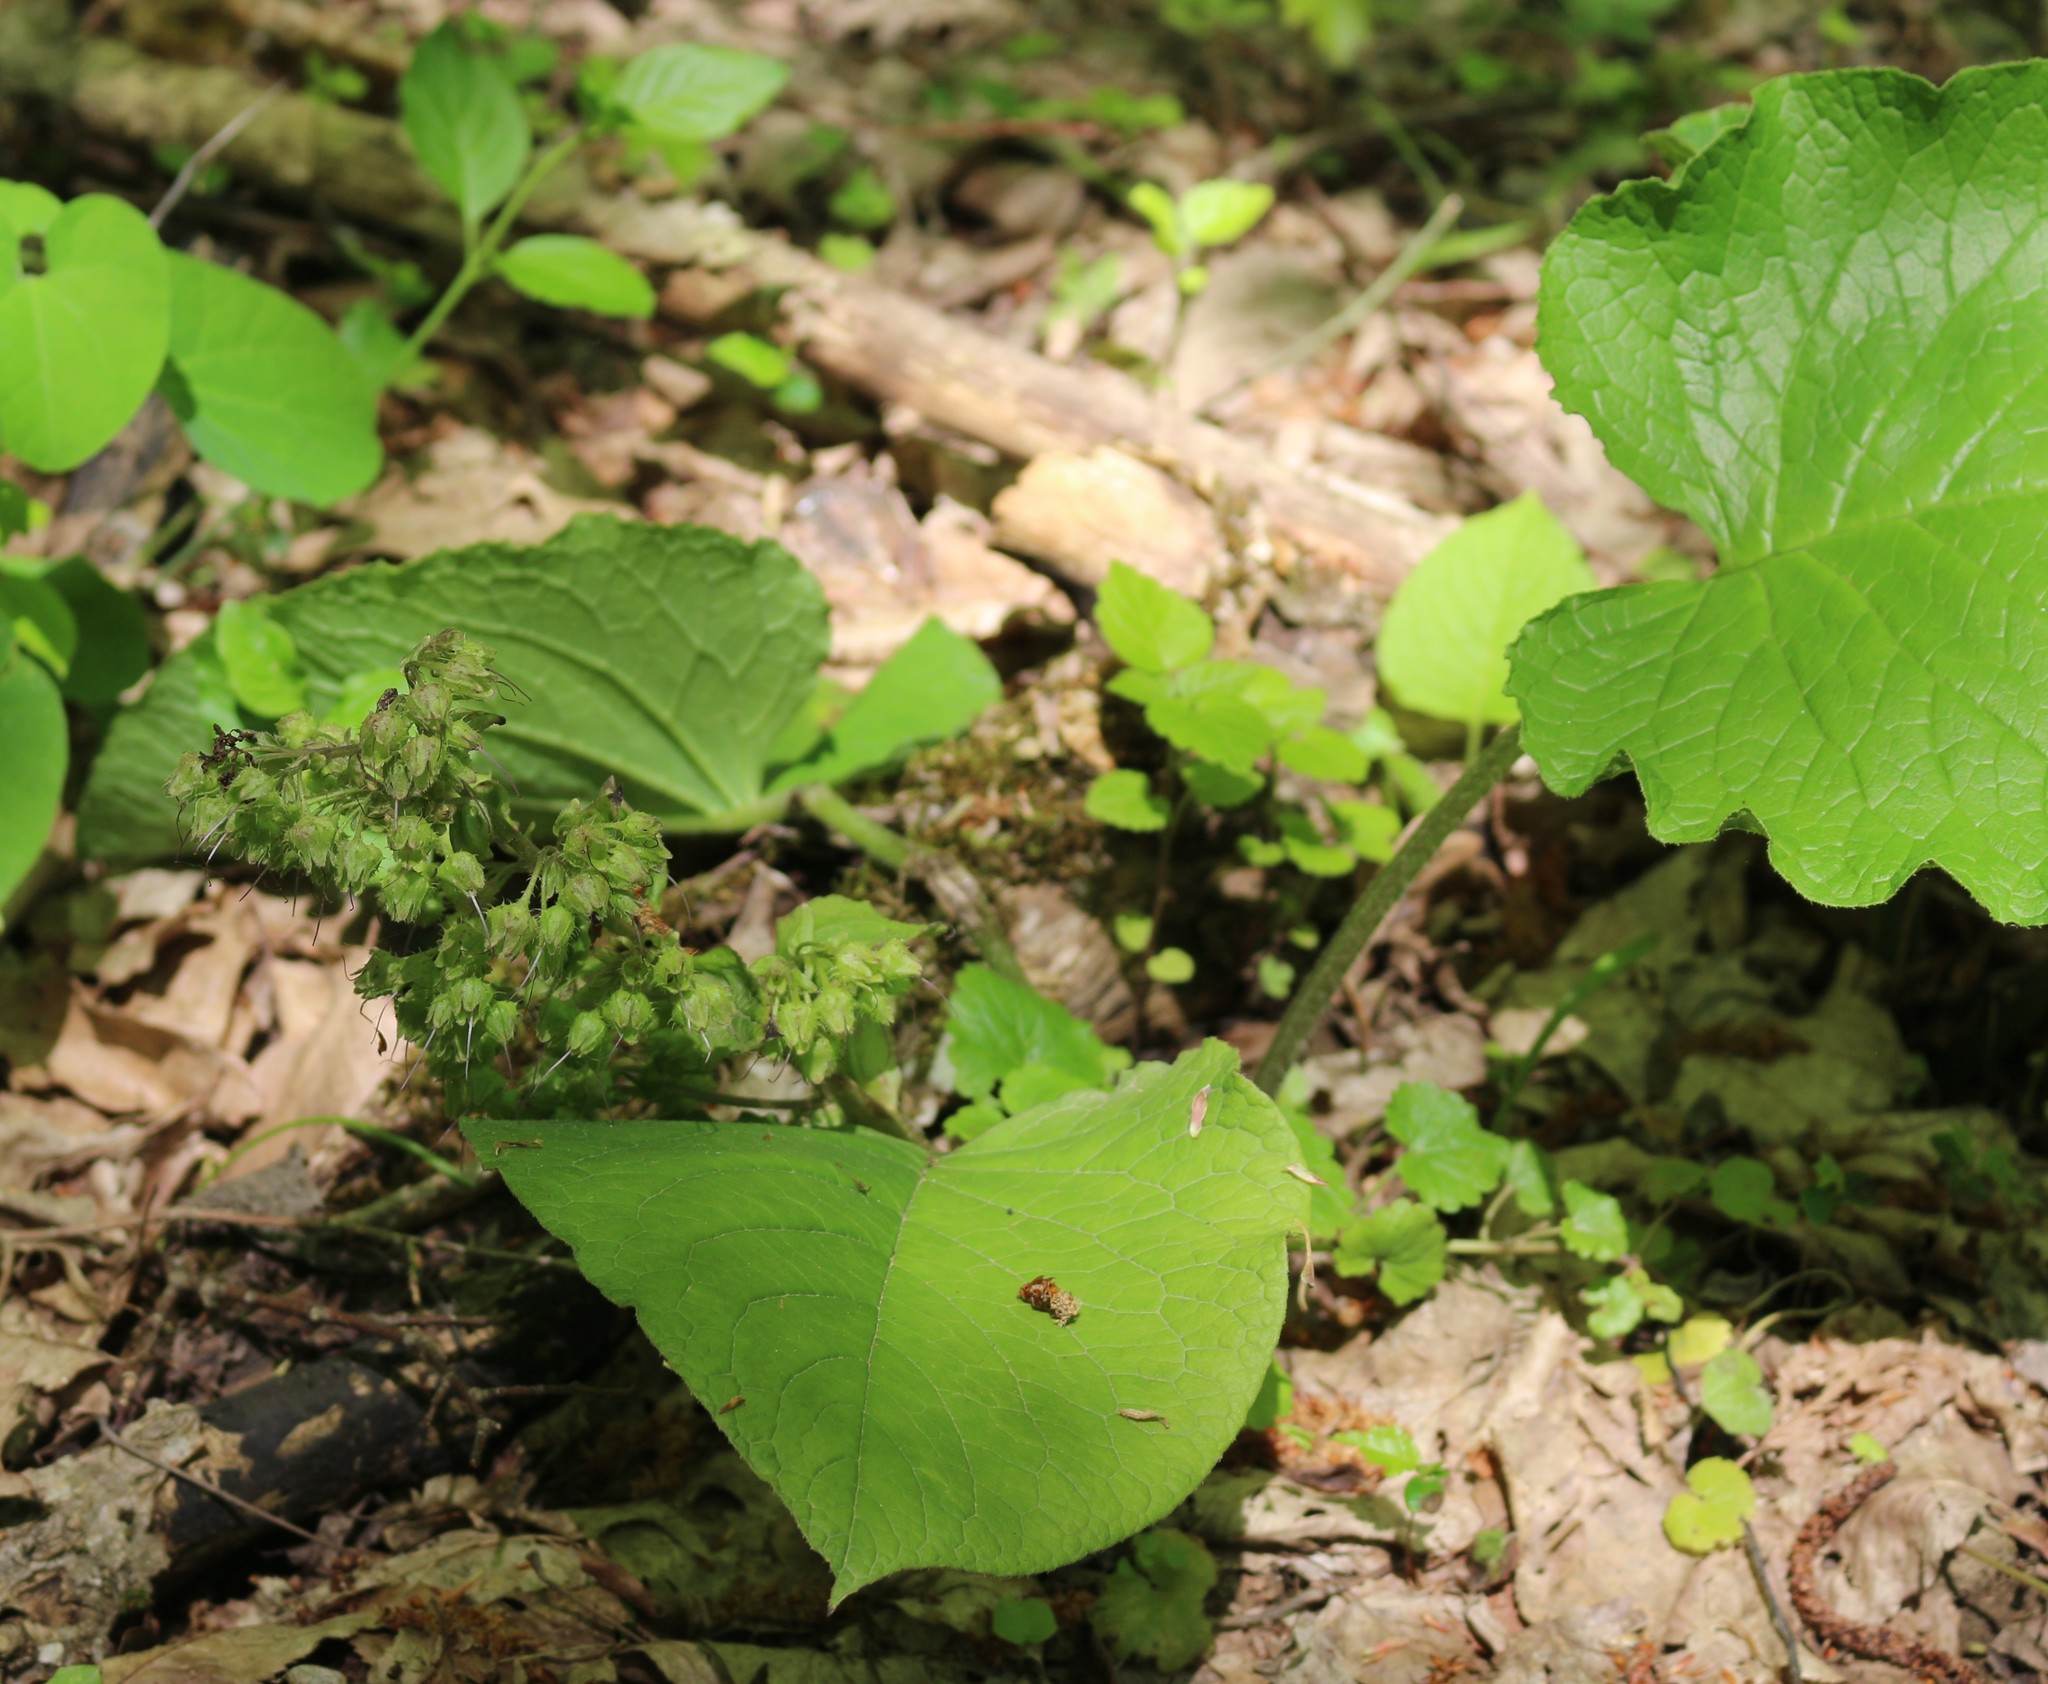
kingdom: Plantae
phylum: Tracheophyta
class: Magnoliopsida
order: Boraginales
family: Boraginaceae
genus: Trachystemon
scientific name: Trachystemon orientale
